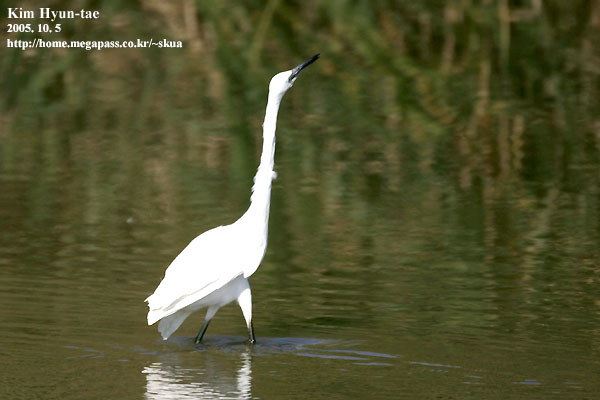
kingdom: Animalia
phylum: Chordata
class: Aves
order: Pelecaniformes
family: Ardeidae
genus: Egretta
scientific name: Egretta garzetta
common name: Little egret
